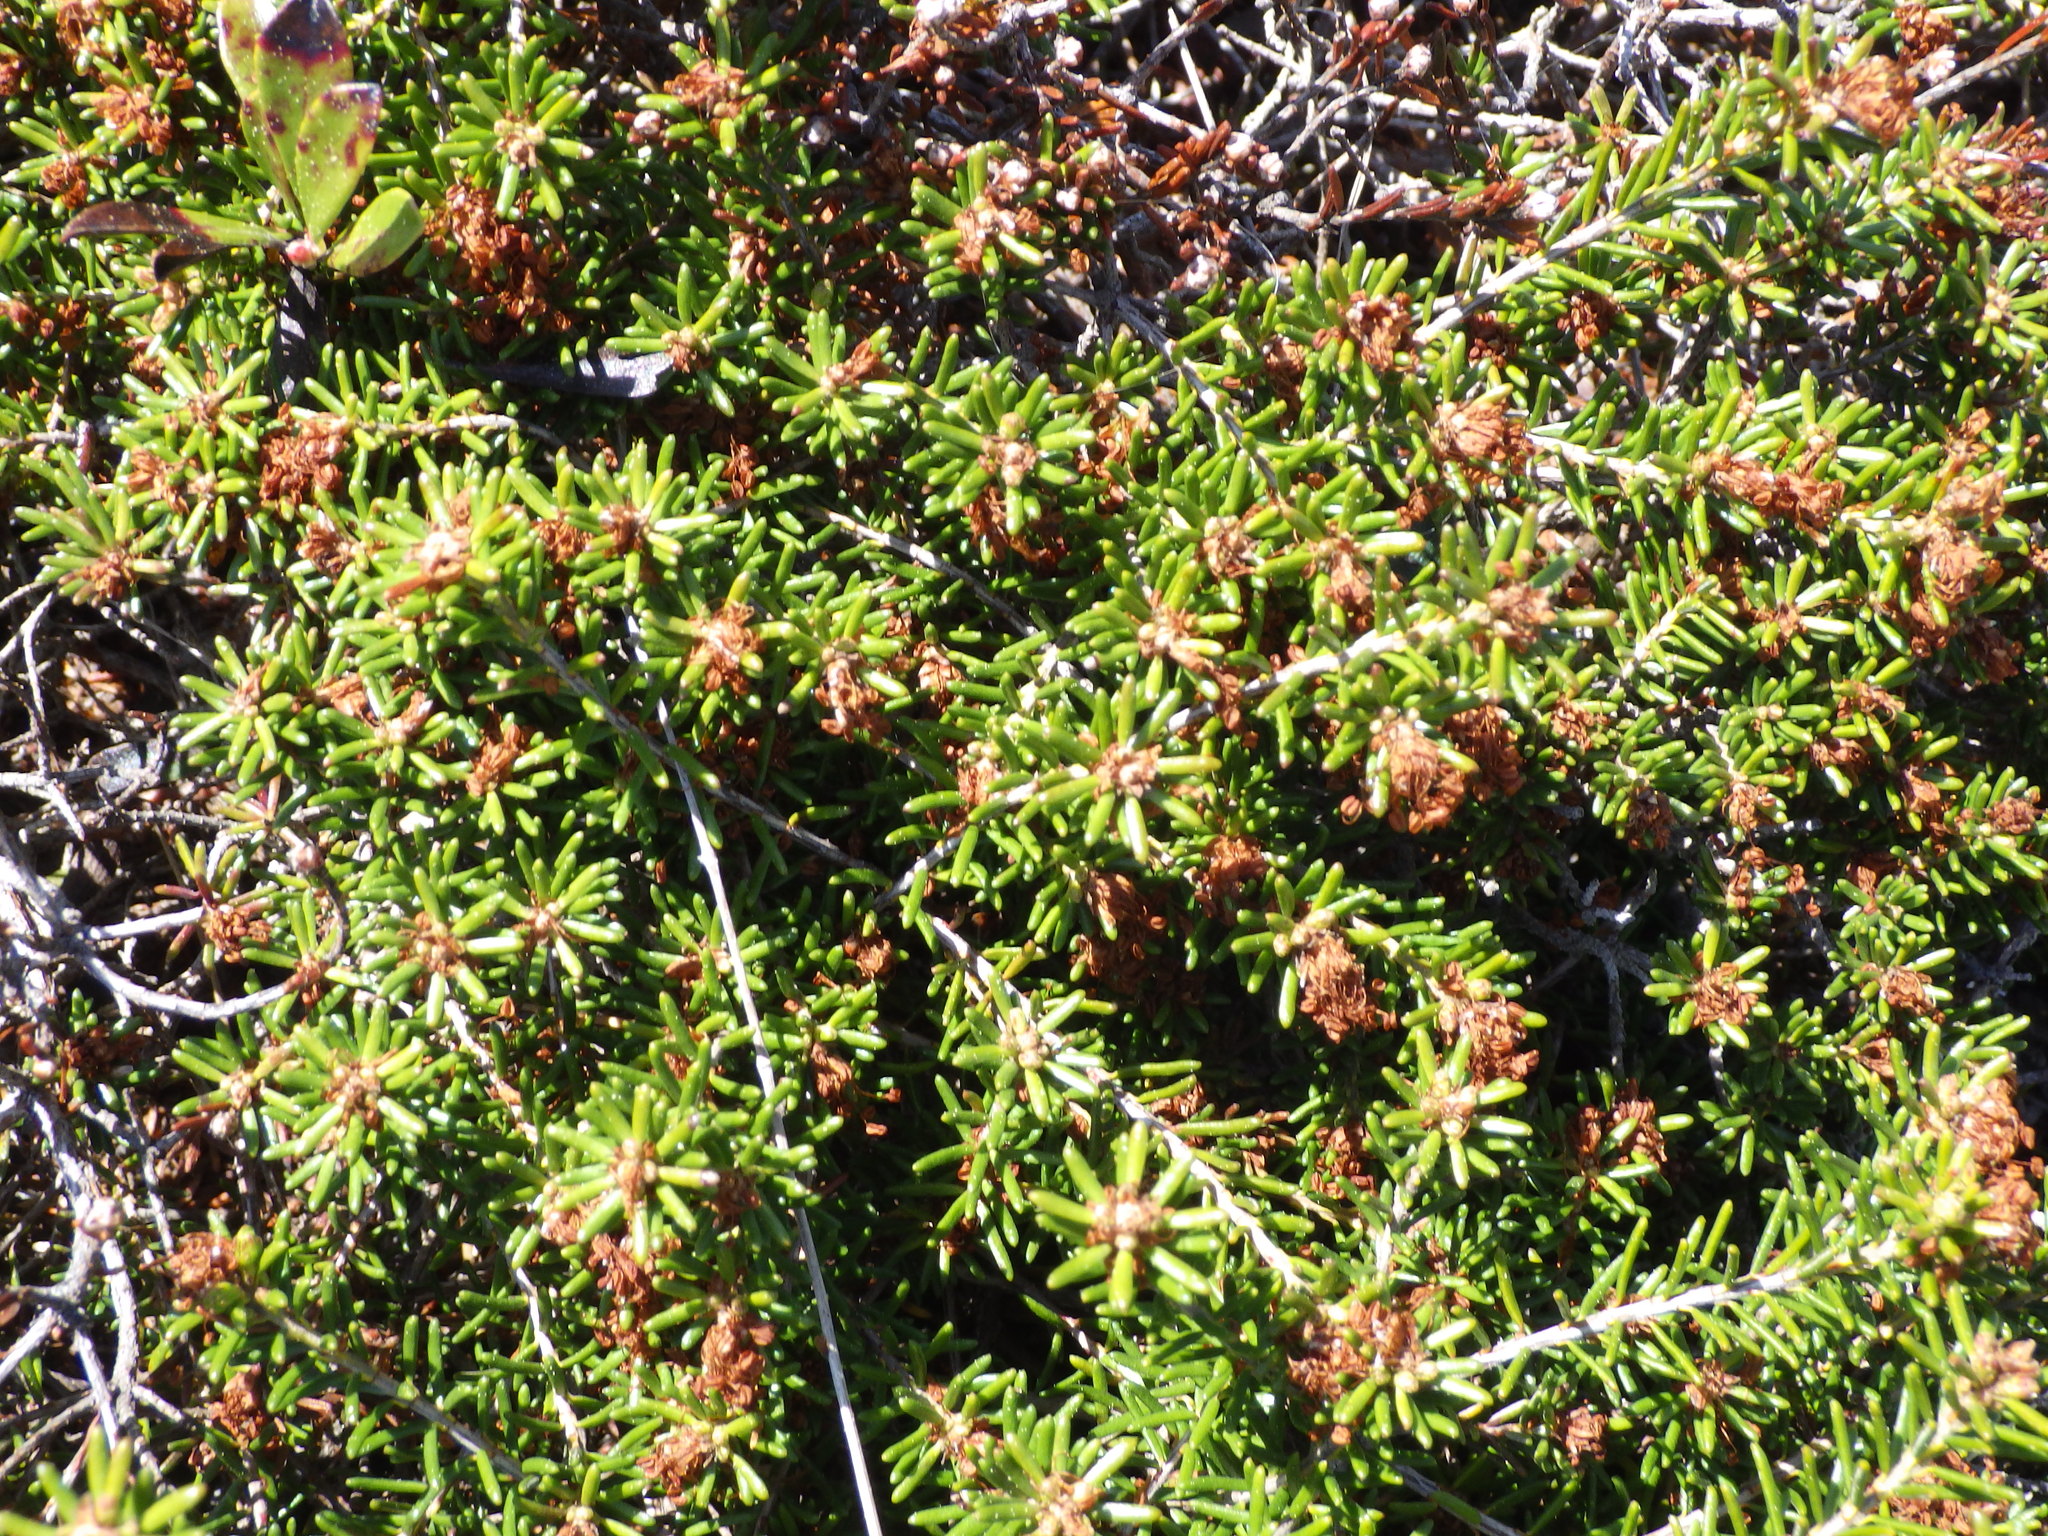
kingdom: Plantae
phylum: Tracheophyta
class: Magnoliopsida
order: Ericales
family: Ericaceae
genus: Corema
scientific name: Corema conradii
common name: Broom-crowberry
